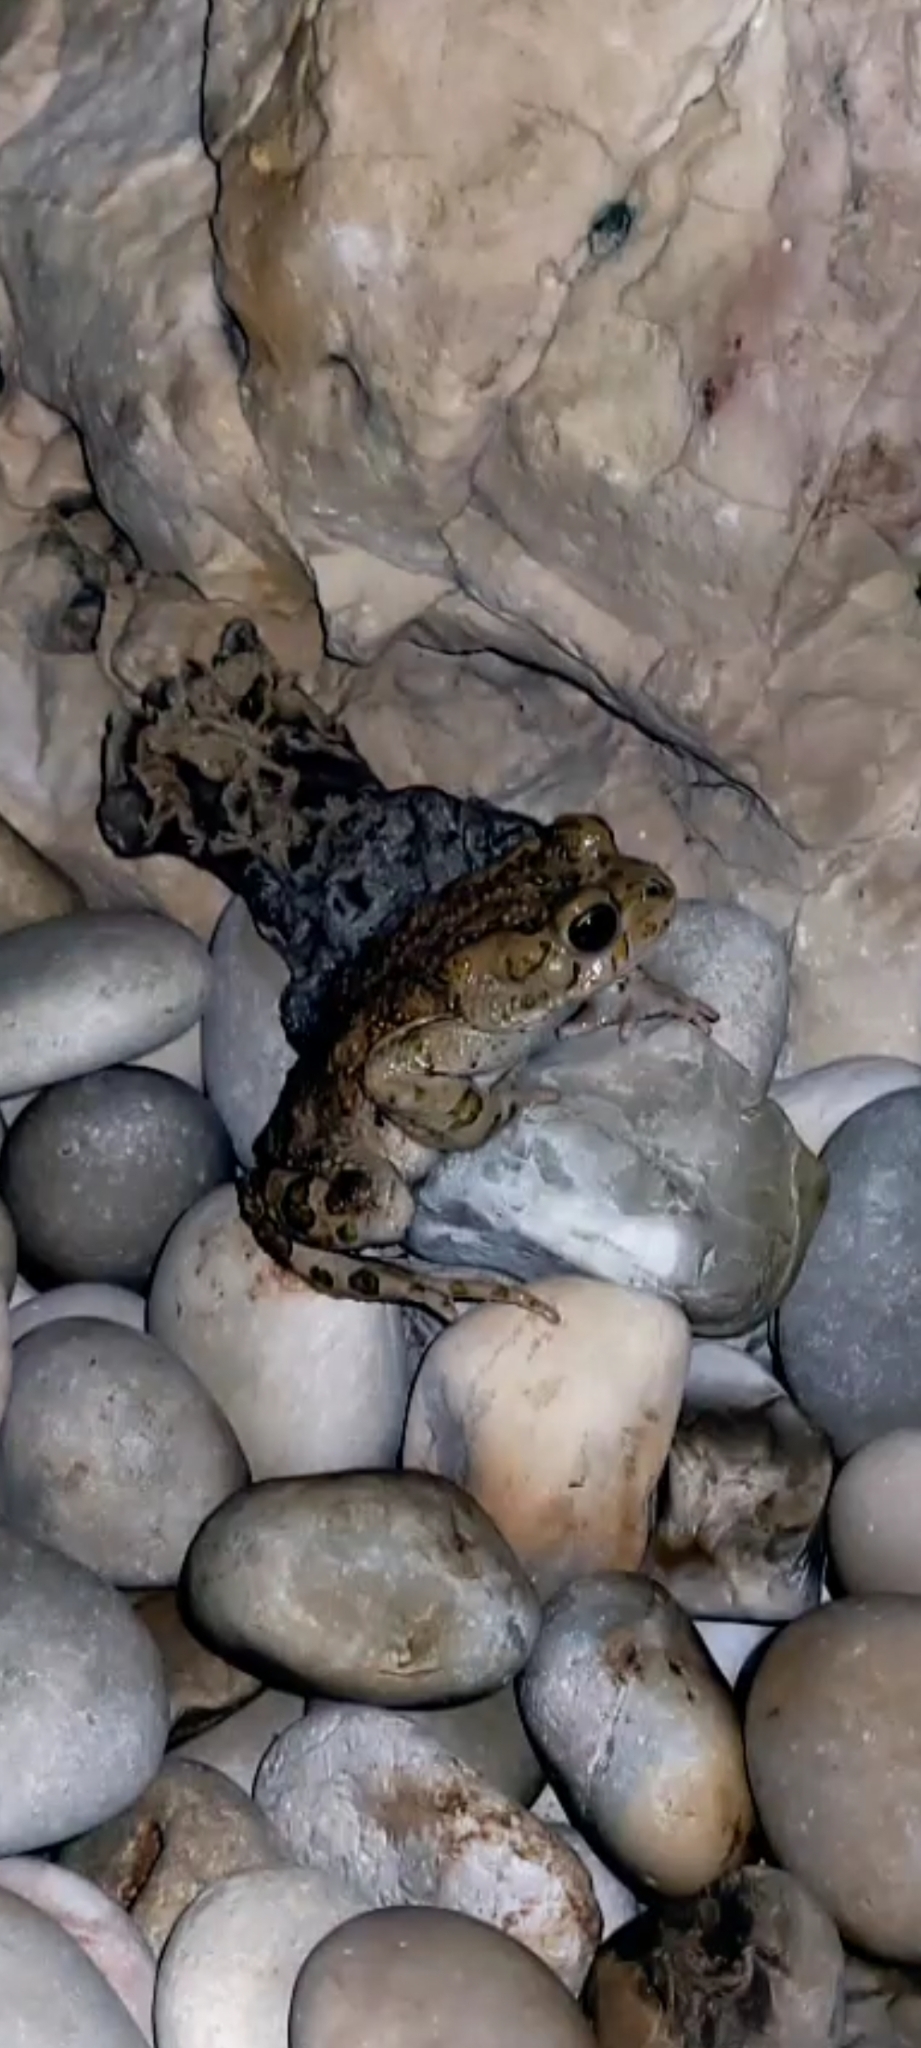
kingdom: Animalia
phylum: Chordata
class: Amphibia
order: Anura
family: Bufonidae
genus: Bufotes
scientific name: Bufotes viridis
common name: European green toad
